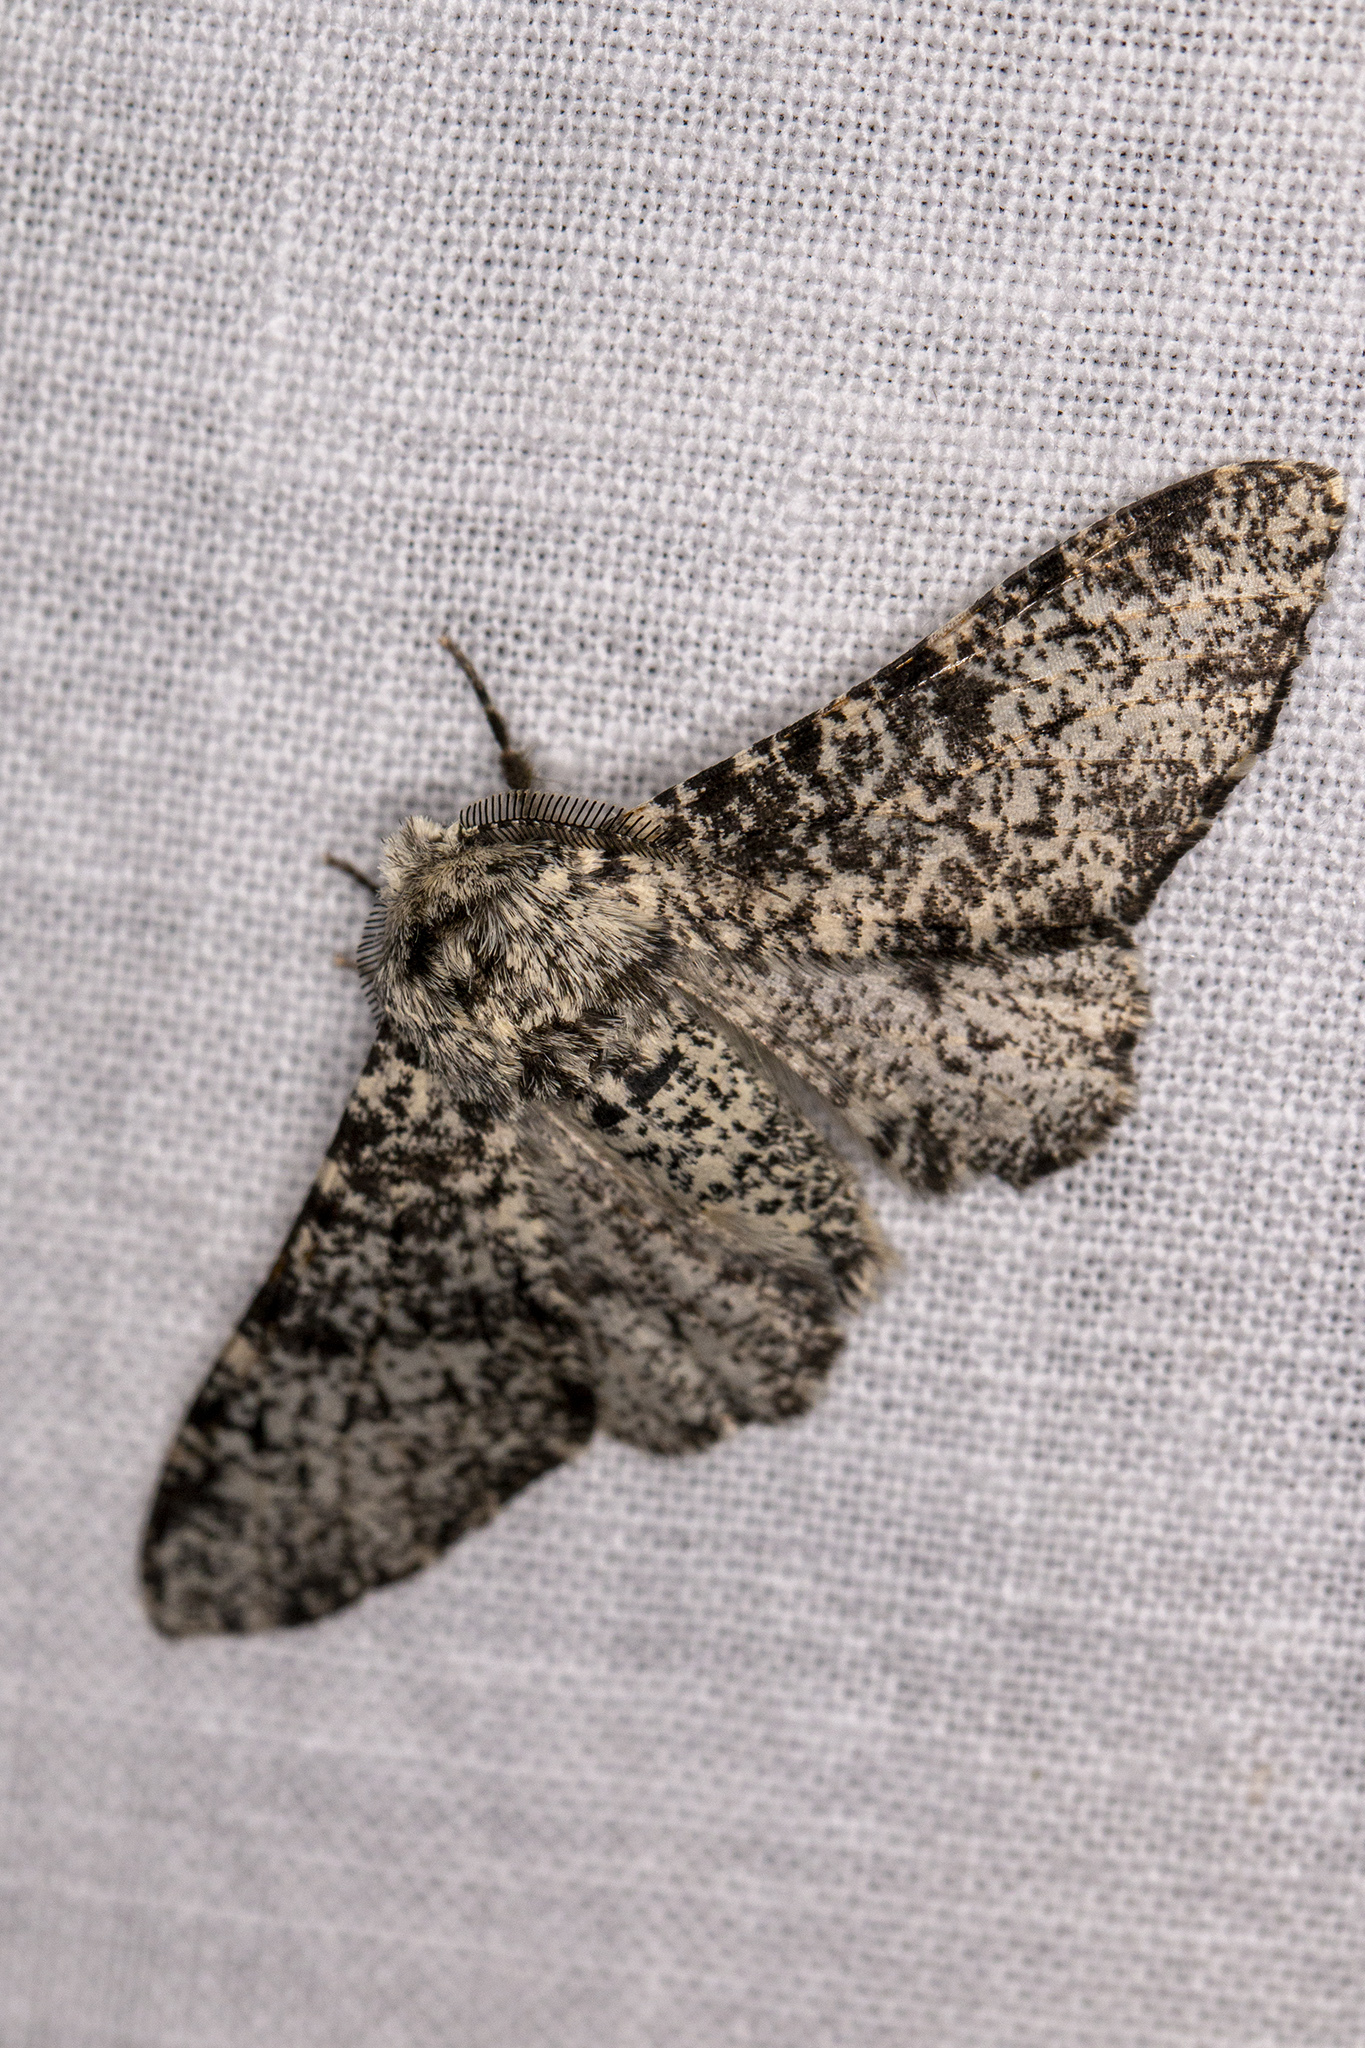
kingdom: Animalia
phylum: Arthropoda
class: Insecta
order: Lepidoptera
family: Geometridae
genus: Biston
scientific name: Biston betularia
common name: Peppered moth
